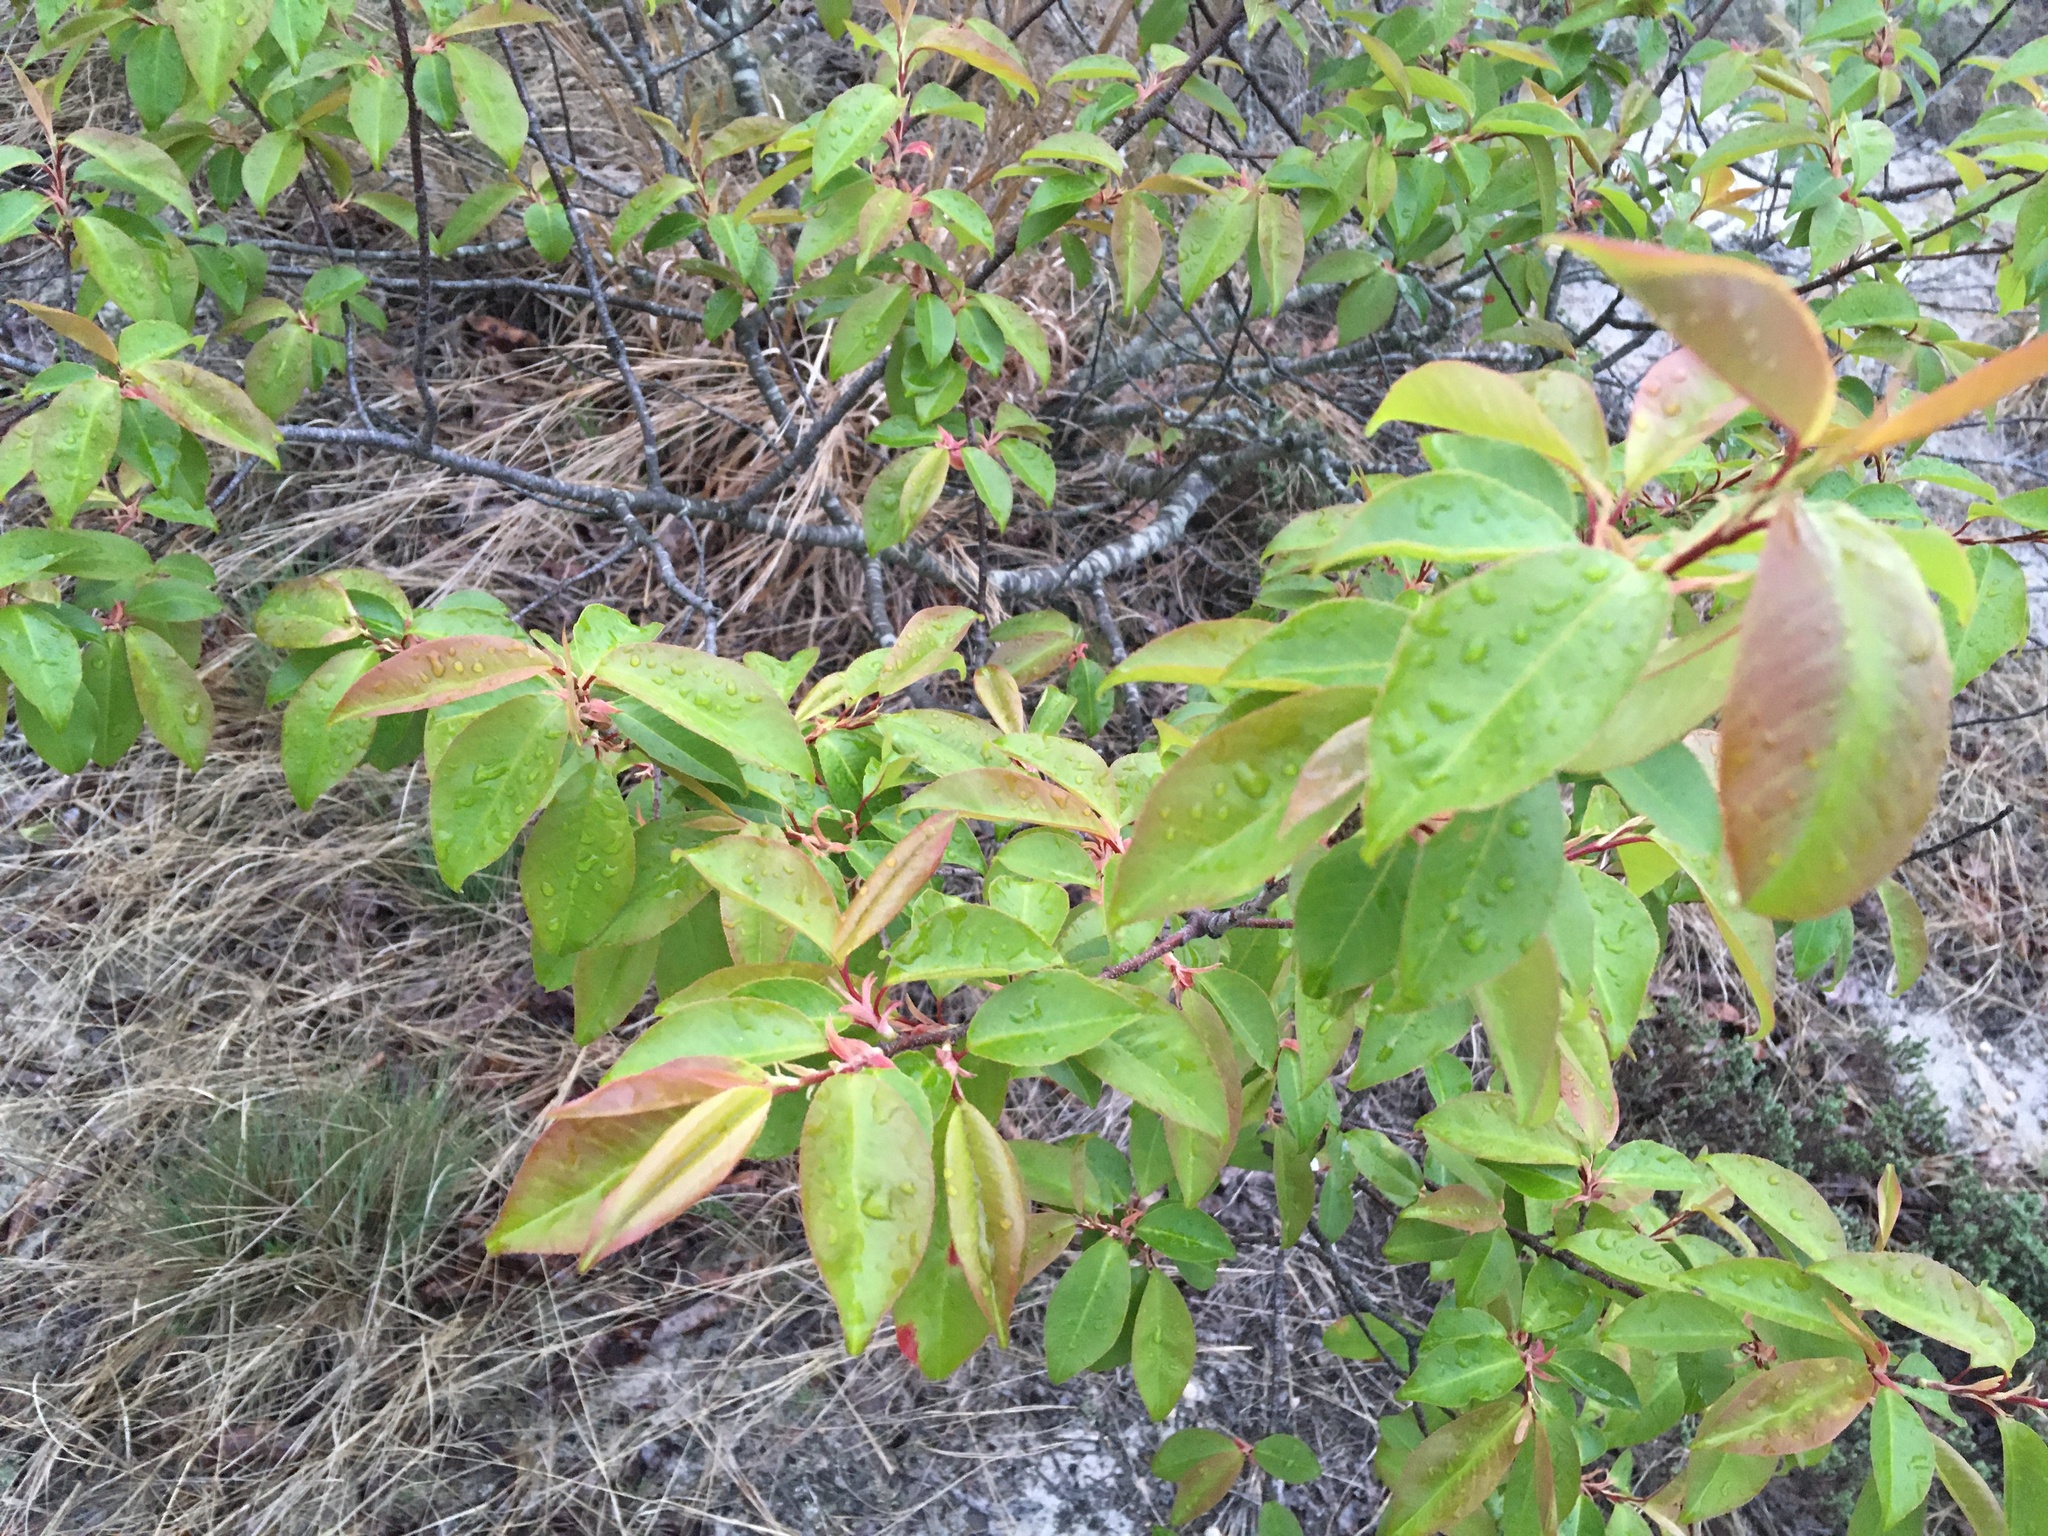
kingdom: Plantae
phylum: Tracheophyta
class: Magnoliopsida
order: Rosales
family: Rosaceae
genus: Prunus
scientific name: Prunus serotina
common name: Black cherry
